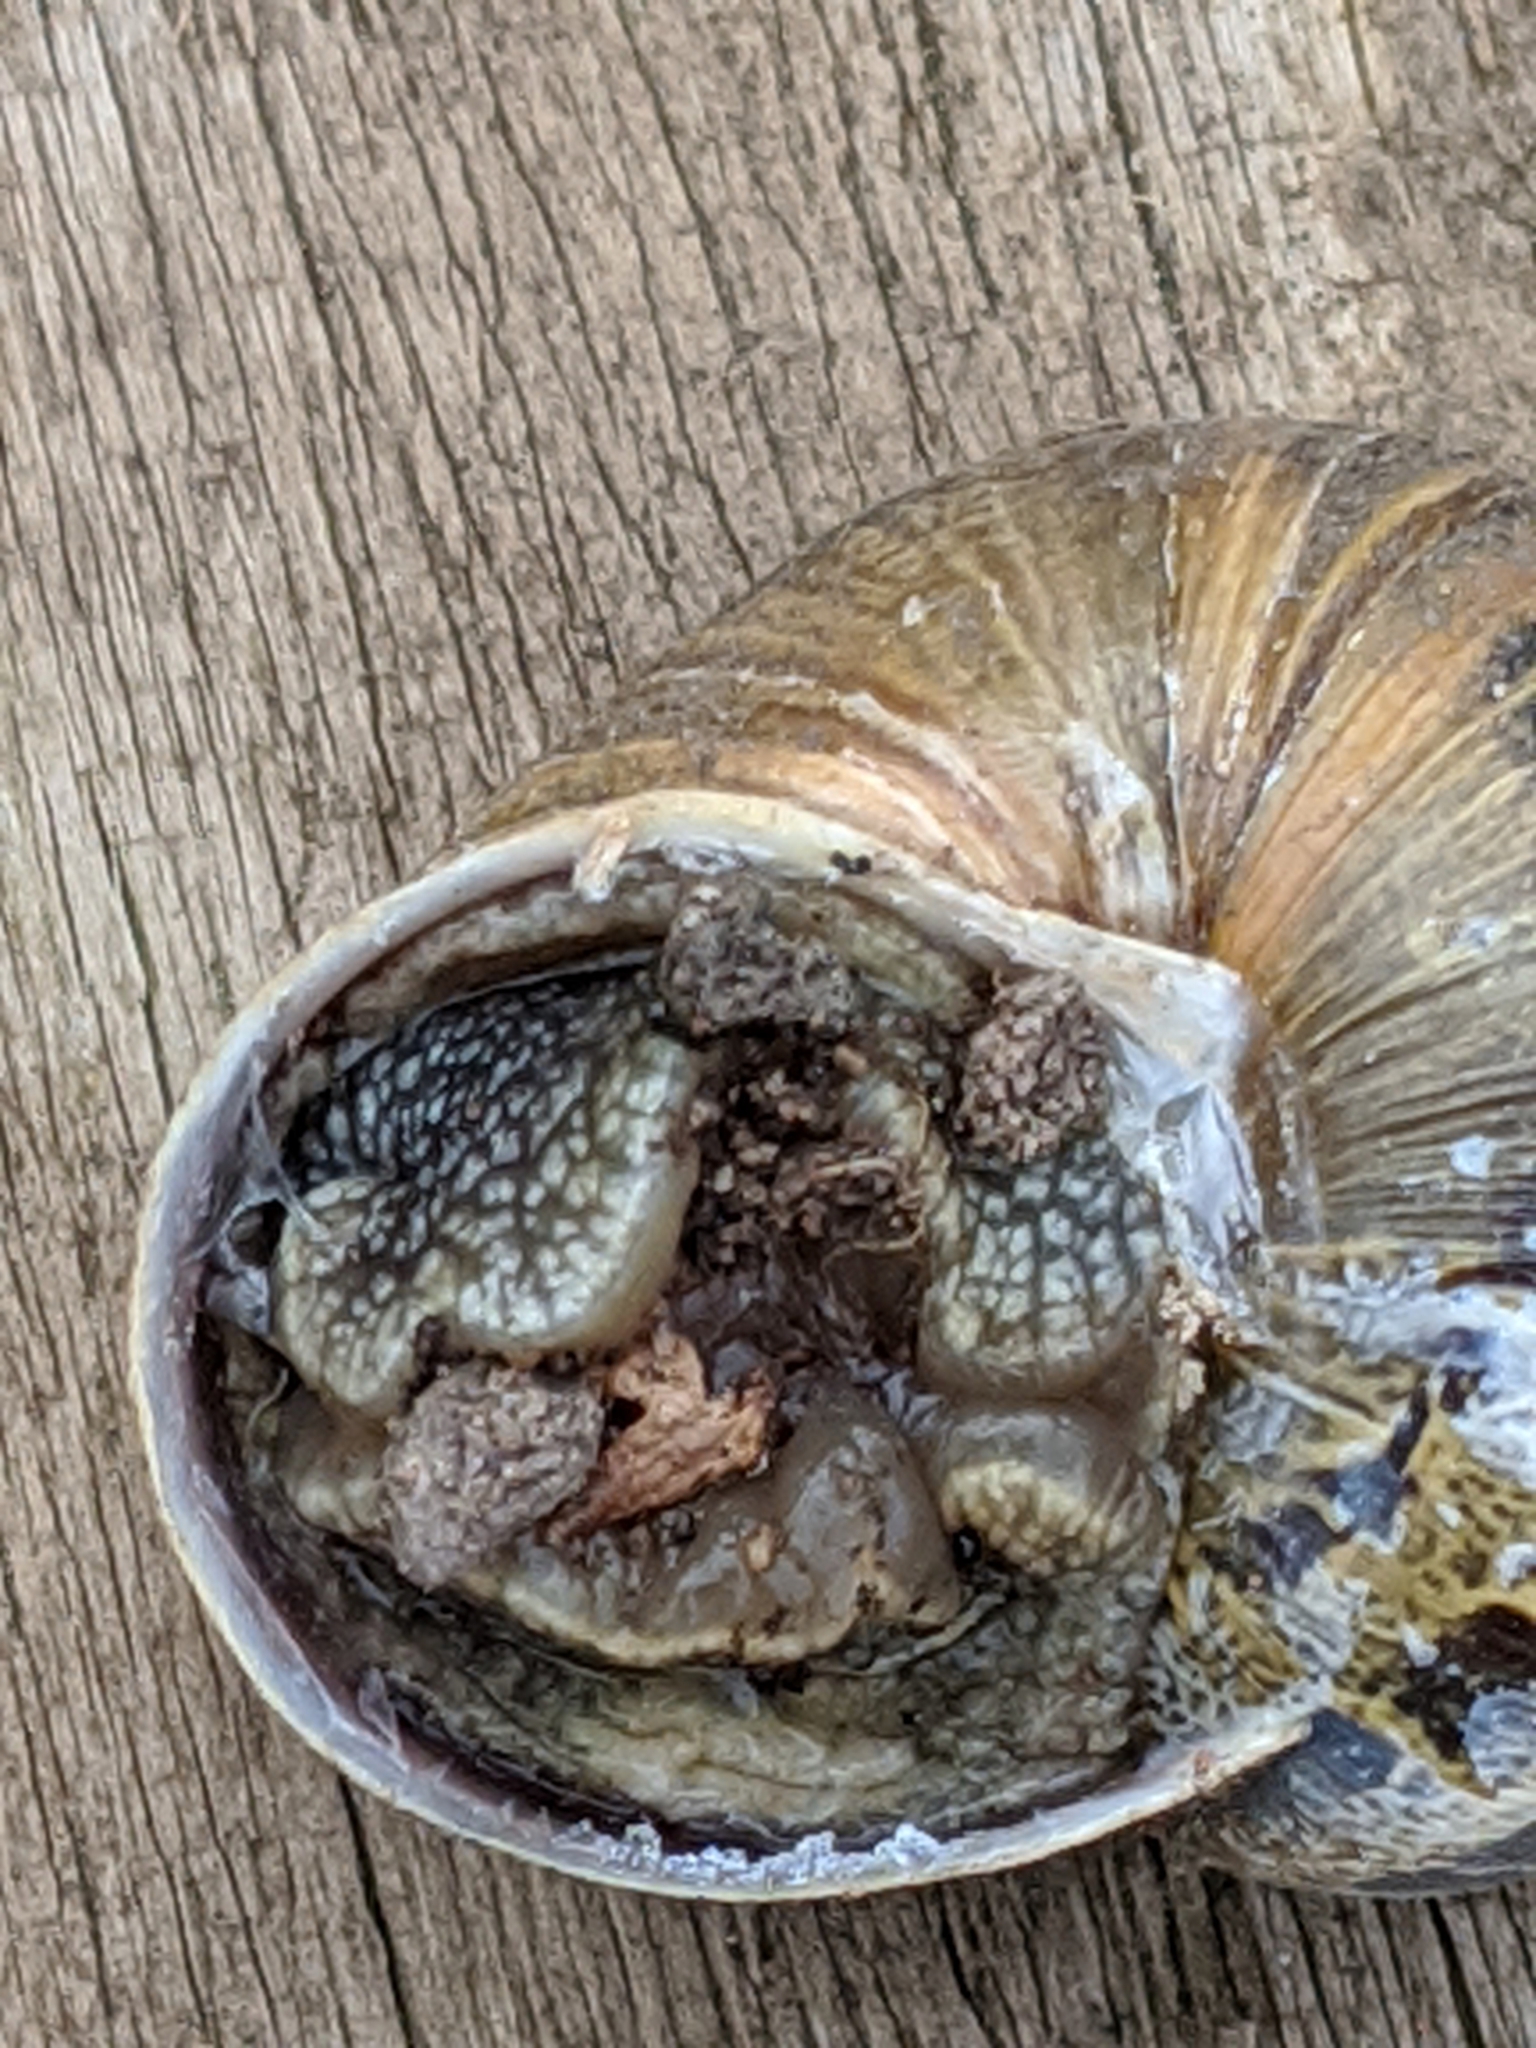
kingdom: Animalia
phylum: Mollusca
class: Gastropoda
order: Stylommatophora
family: Helicidae
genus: Cornu
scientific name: Cornu aspersum
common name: Brown garden snail
